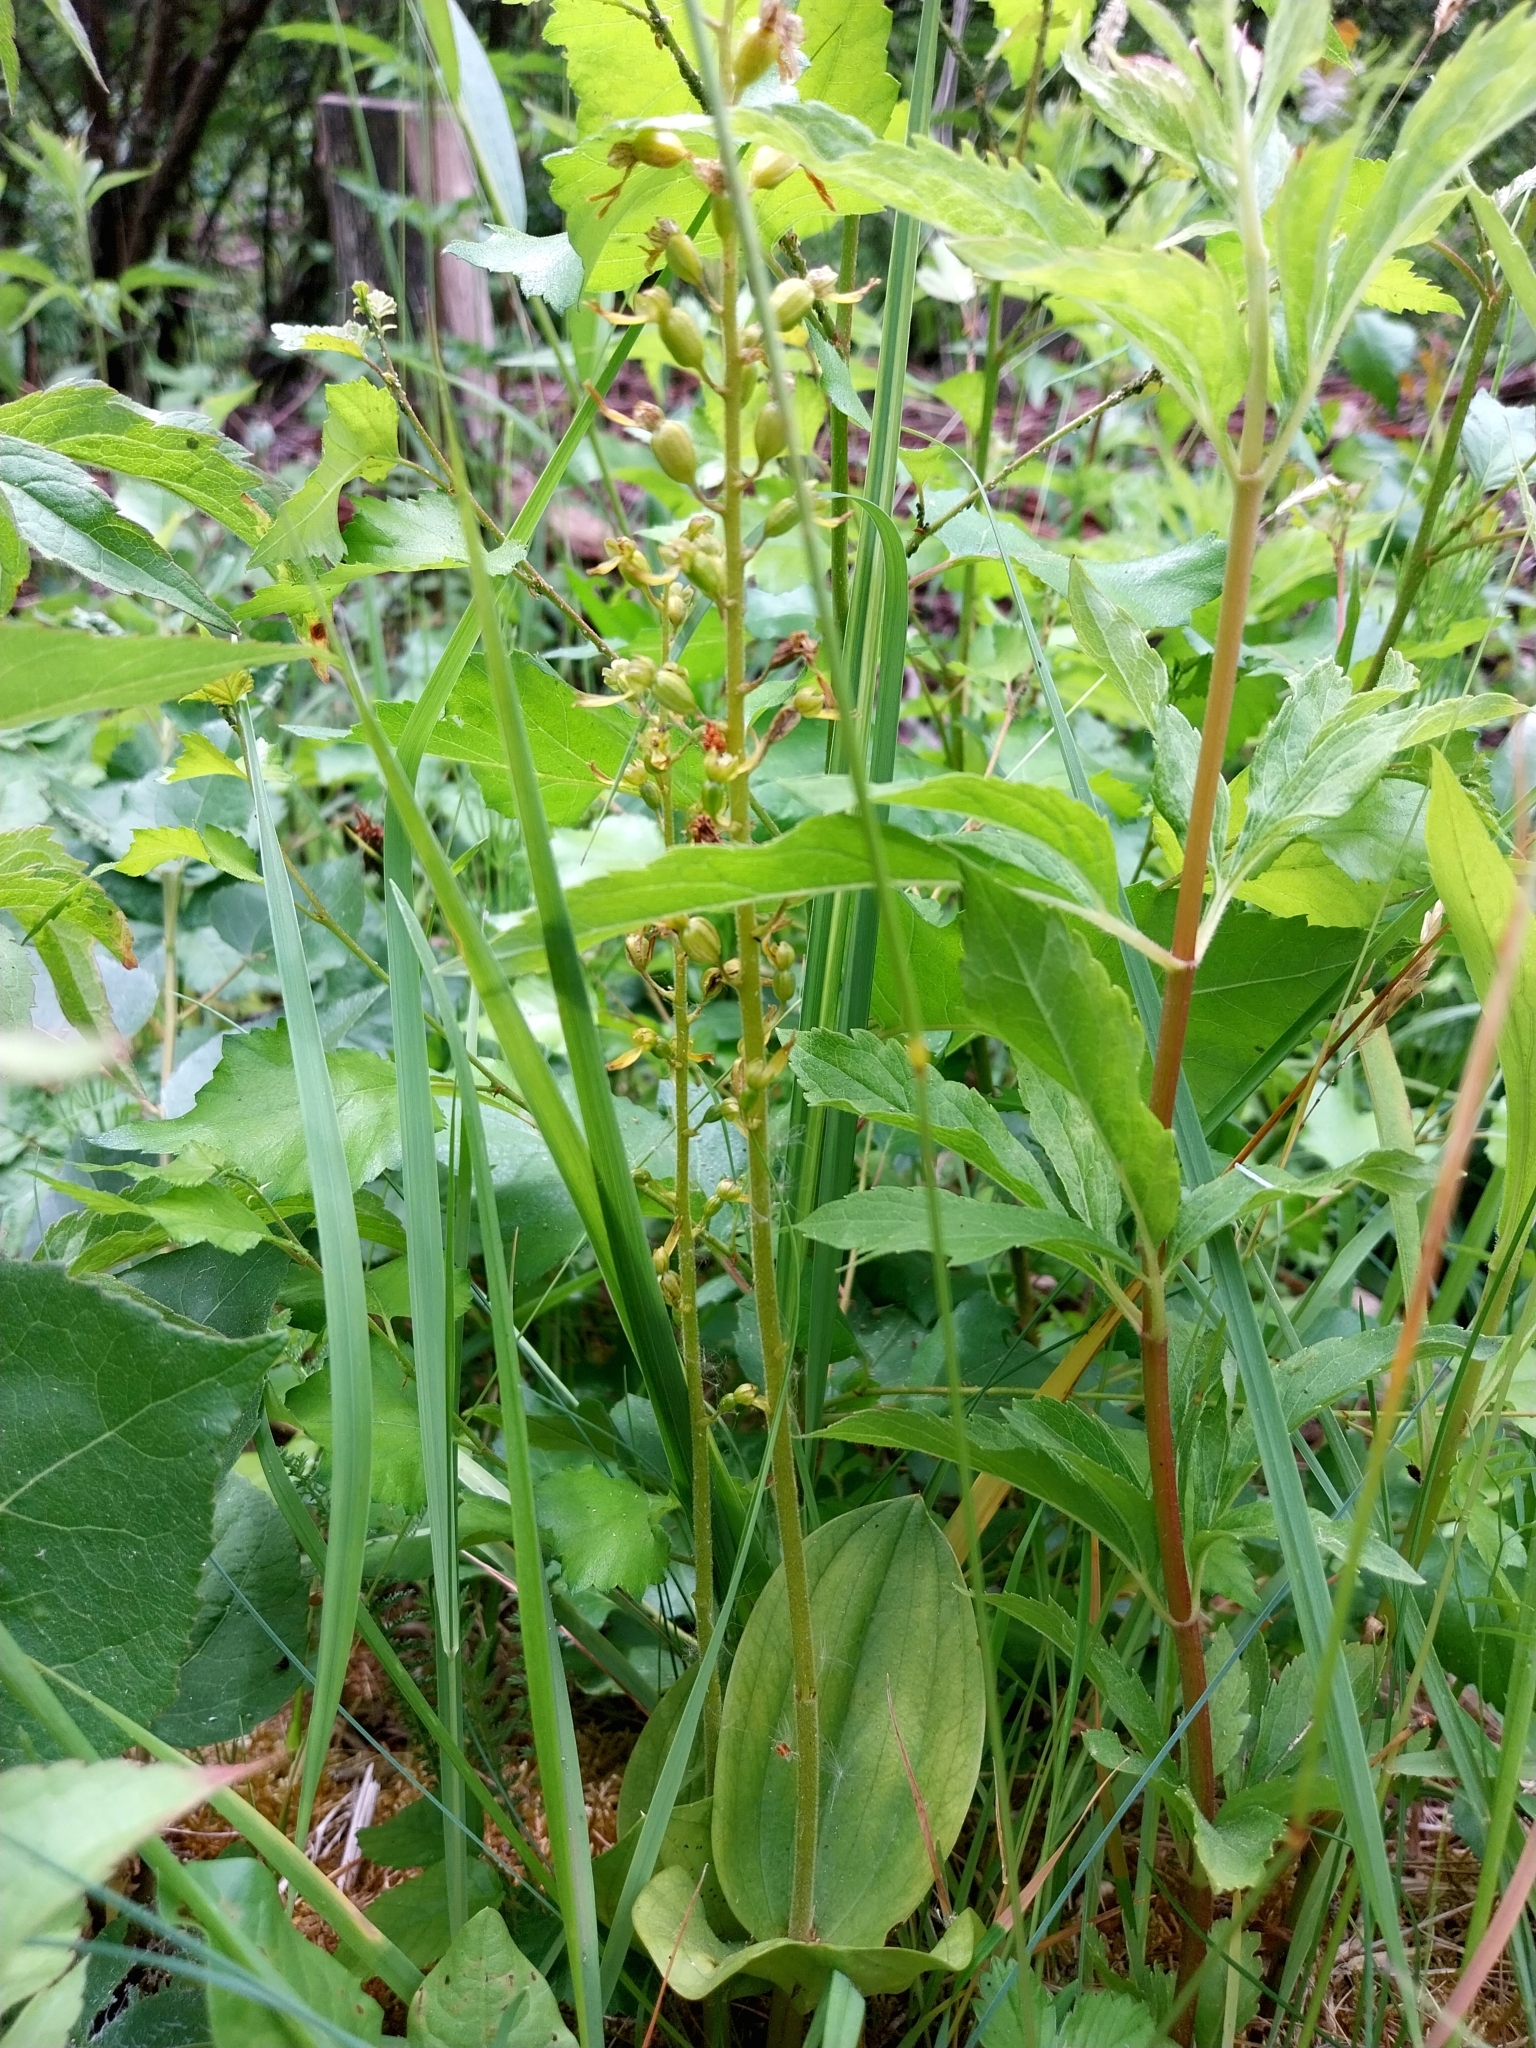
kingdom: Plantae
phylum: Tracheophyta
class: Liliopsida
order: Asparagales
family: Orchidaceae
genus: Neottia
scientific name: Neottia ovata
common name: Common twayblade
